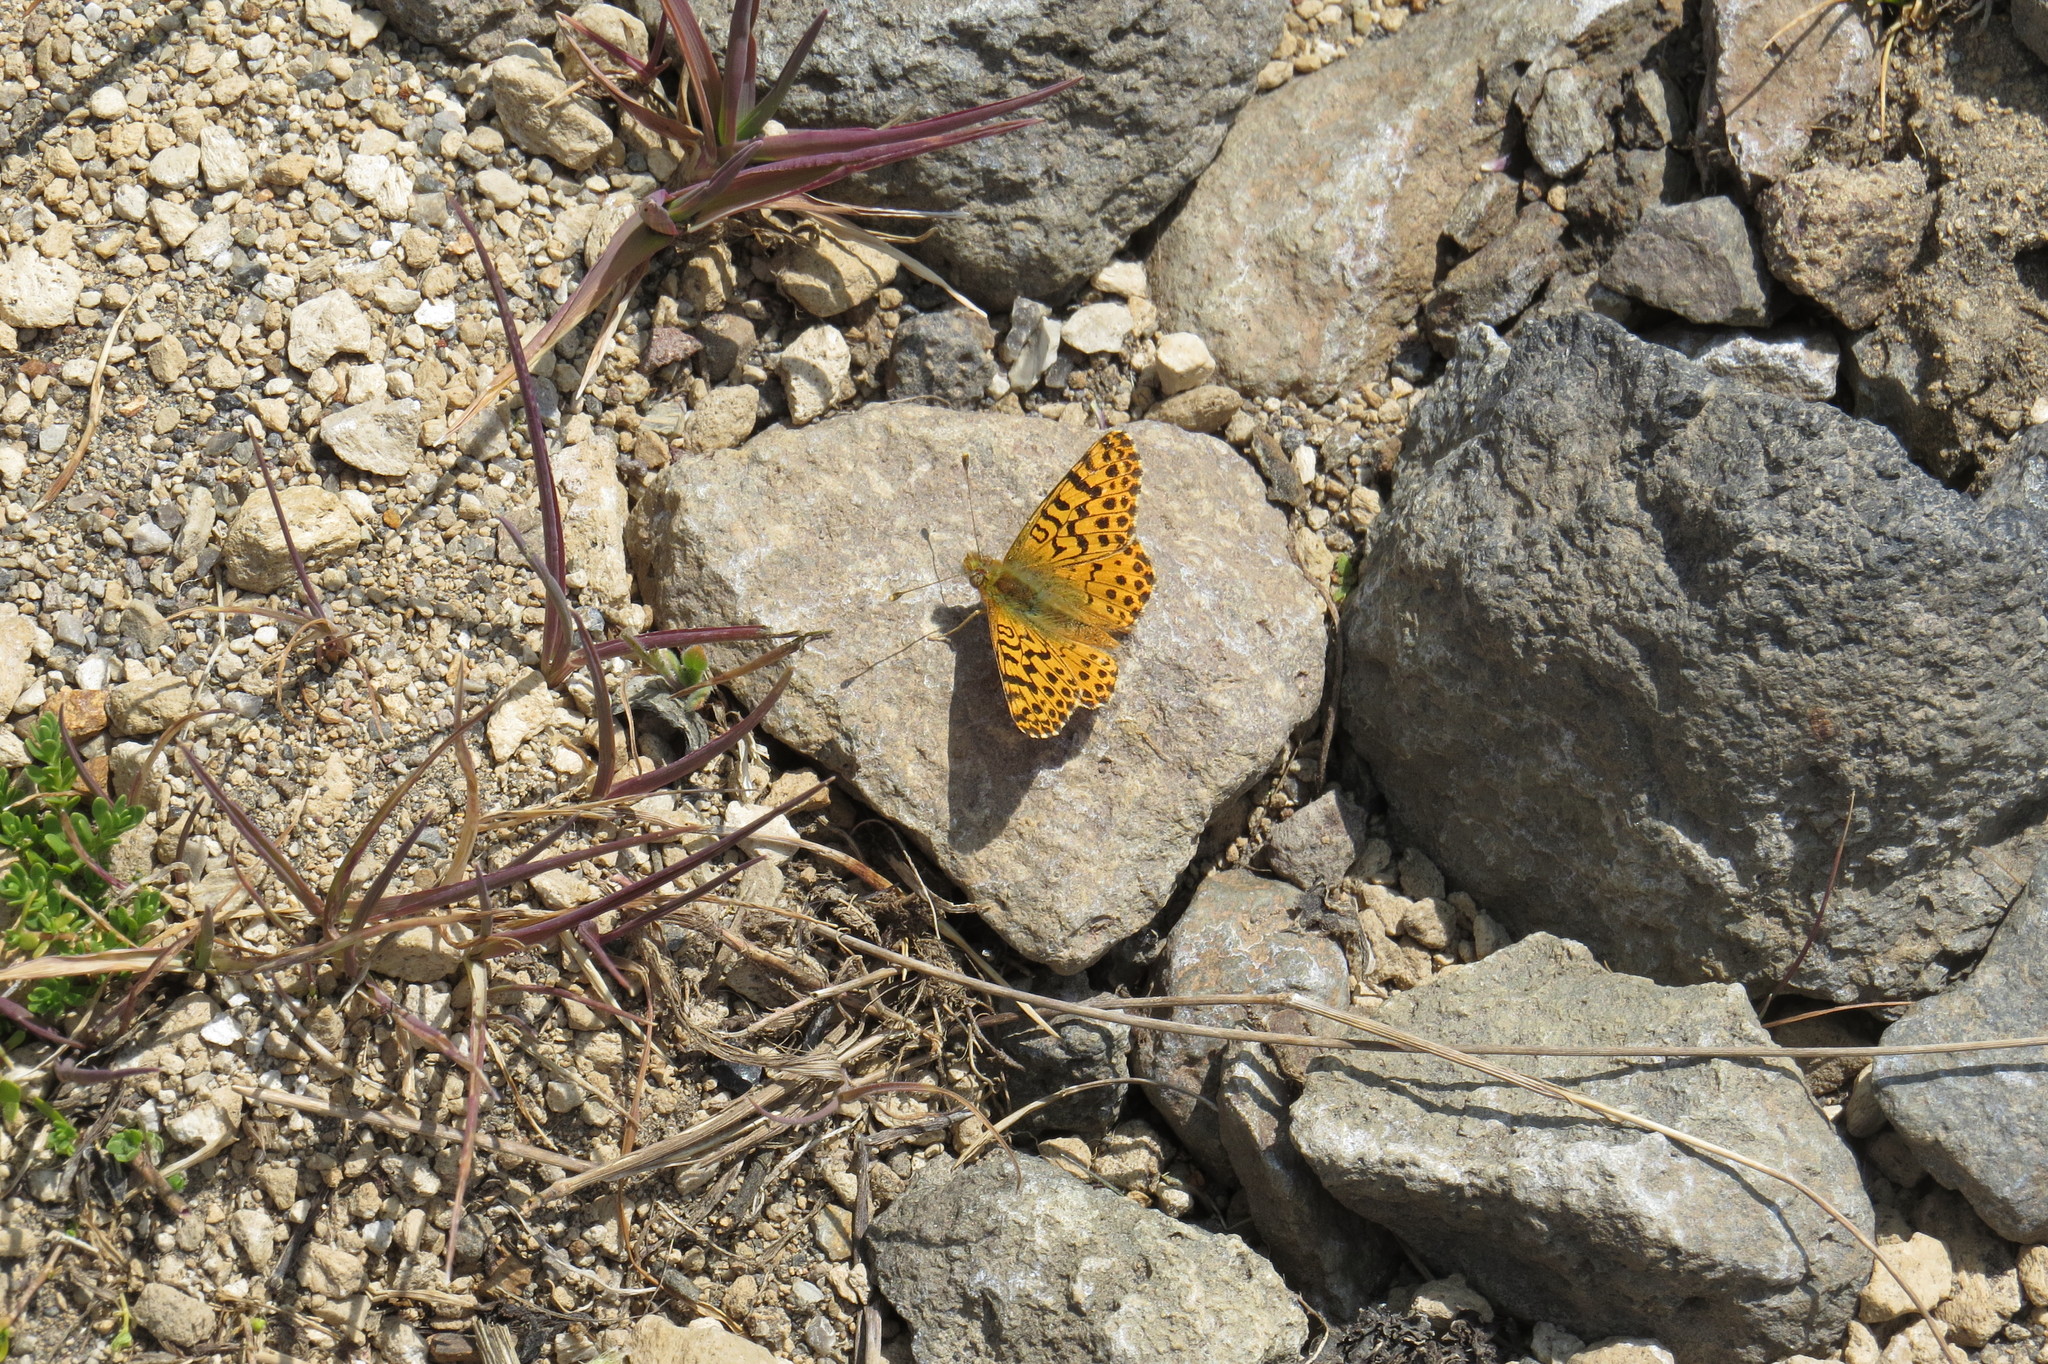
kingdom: Animalia
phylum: Arthropoda
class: Insecta
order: Lepidoptera
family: Nymphalidae
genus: Issoria
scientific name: Issoria Yramea lathonoides
